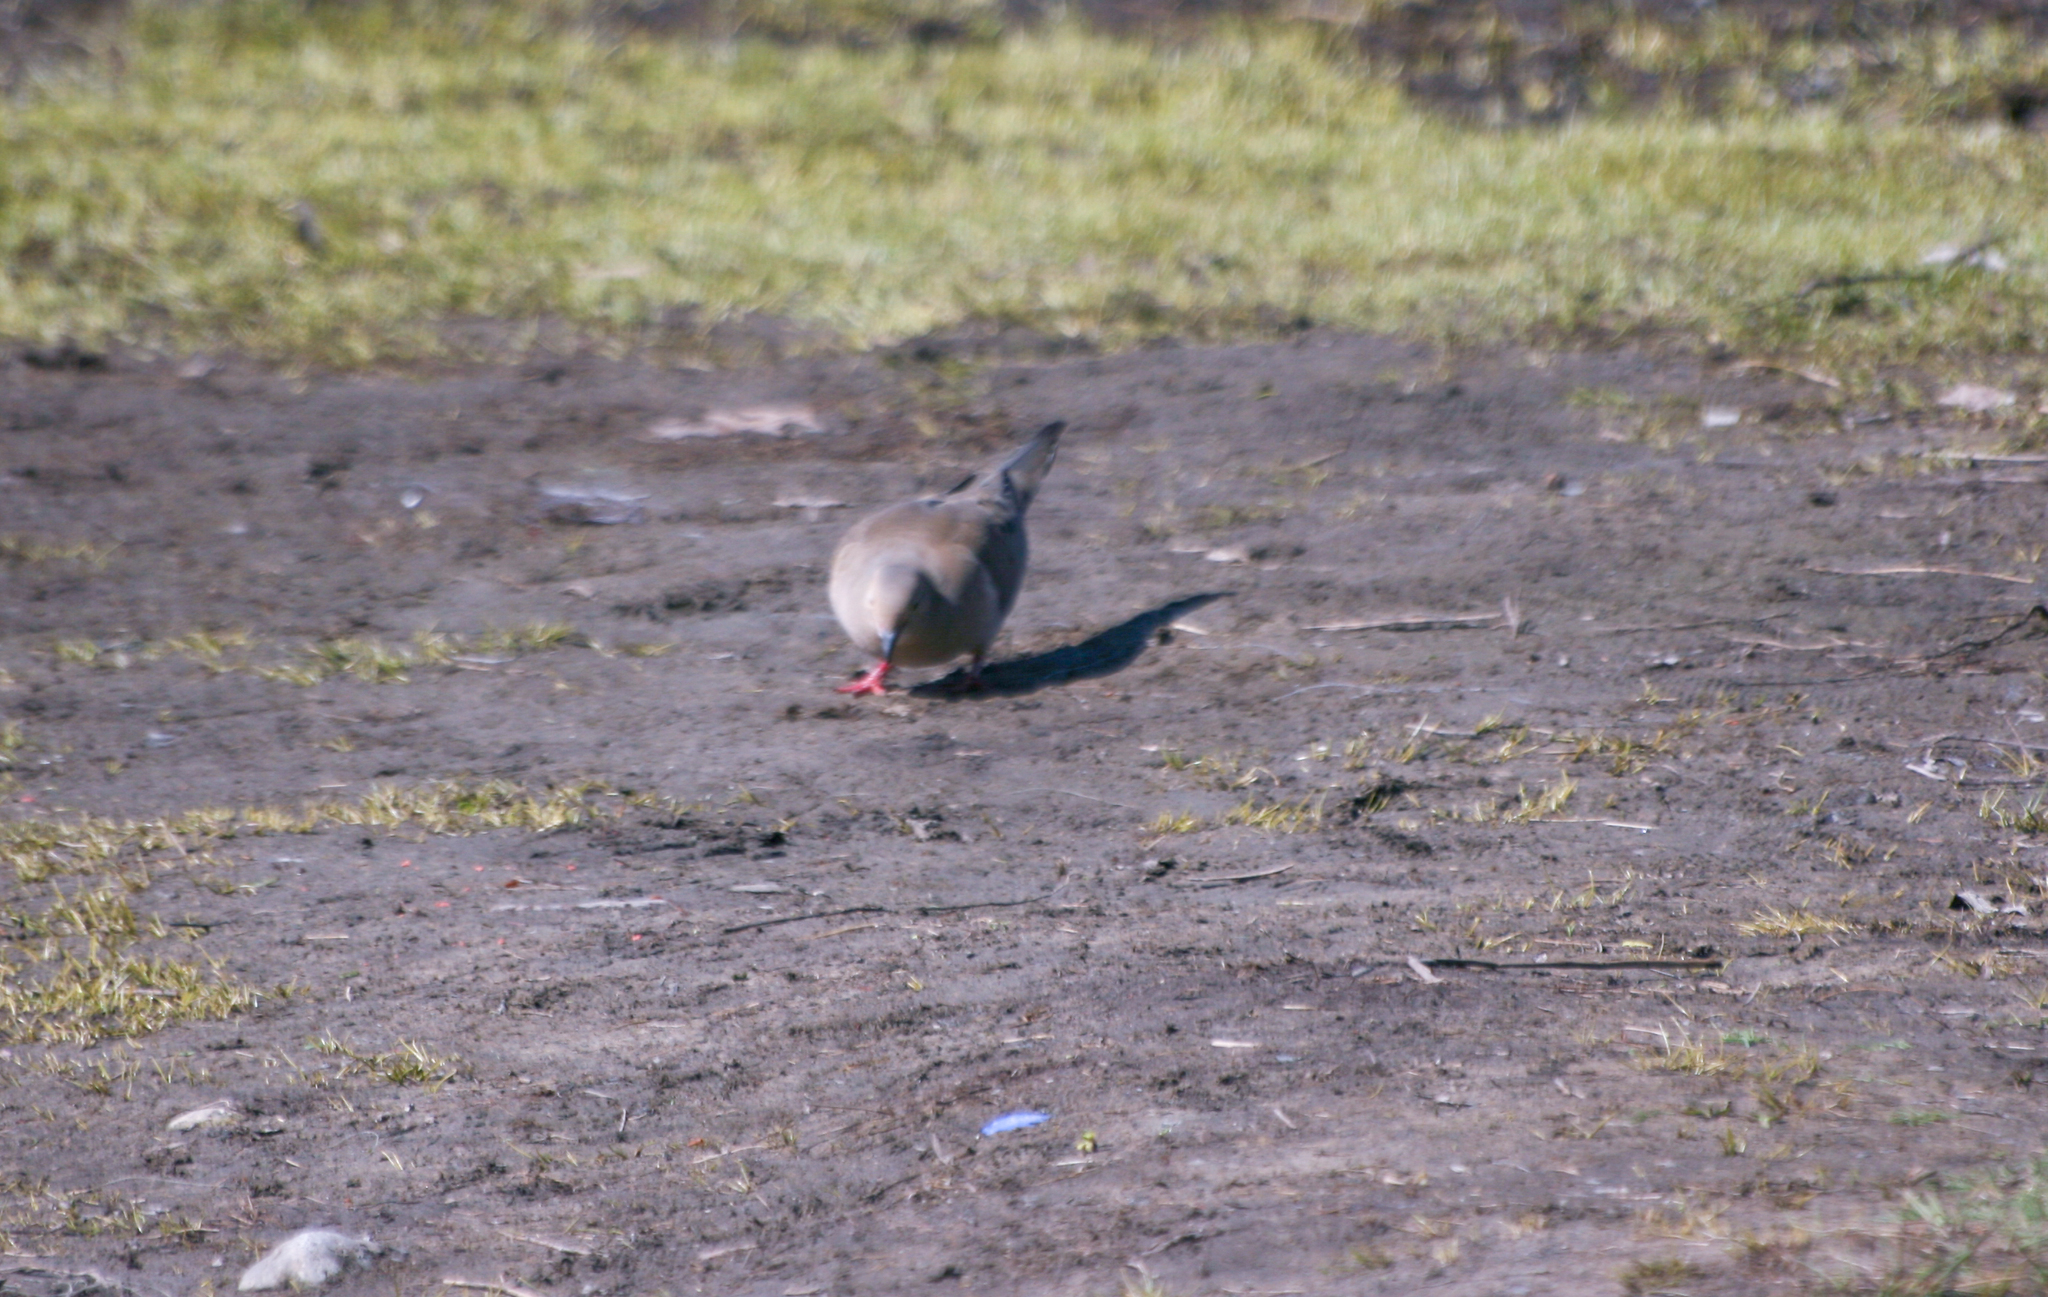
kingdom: Animalia
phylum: Chordata
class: Aves
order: Columbiformes
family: Columbidae
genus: Zenaida
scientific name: Zenaida macroura
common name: Mourning dove
